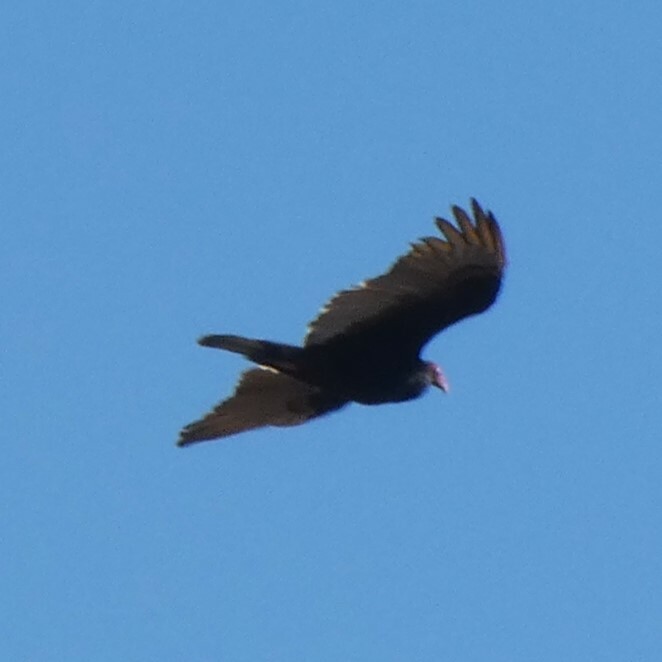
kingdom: Animalia
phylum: Chordata
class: Aves
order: Accipitriformes
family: Cathartidae
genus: Cathartes
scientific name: Cathartes aura
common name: Turkey vulture
